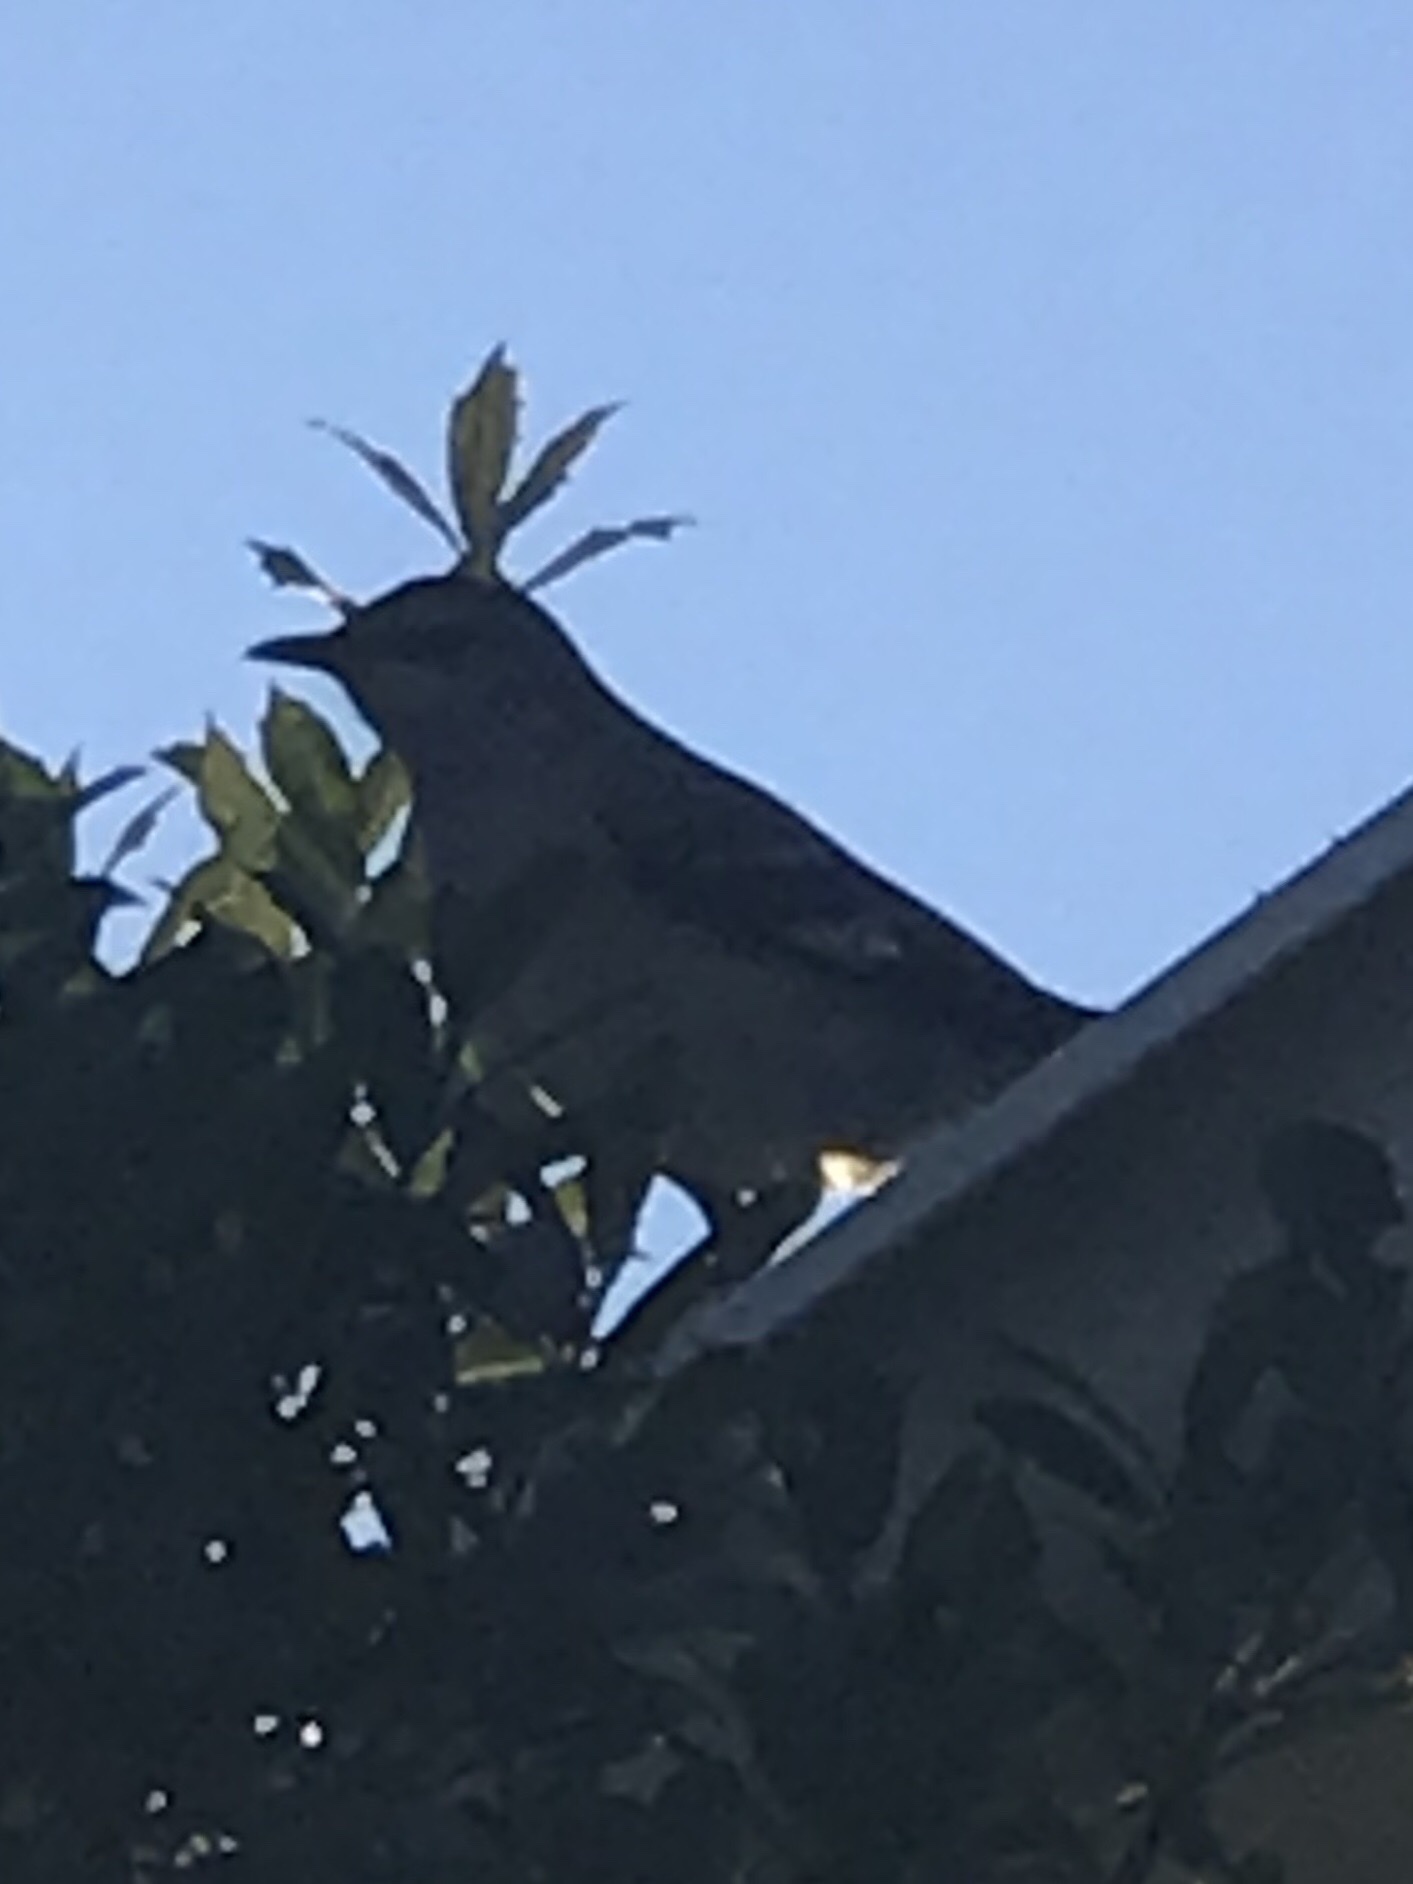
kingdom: Animalia
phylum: Chordata
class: Aves
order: Passeriformes
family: Mimidae
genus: Mimus
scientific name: Mimus polyglottos
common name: Northern mockingbird
